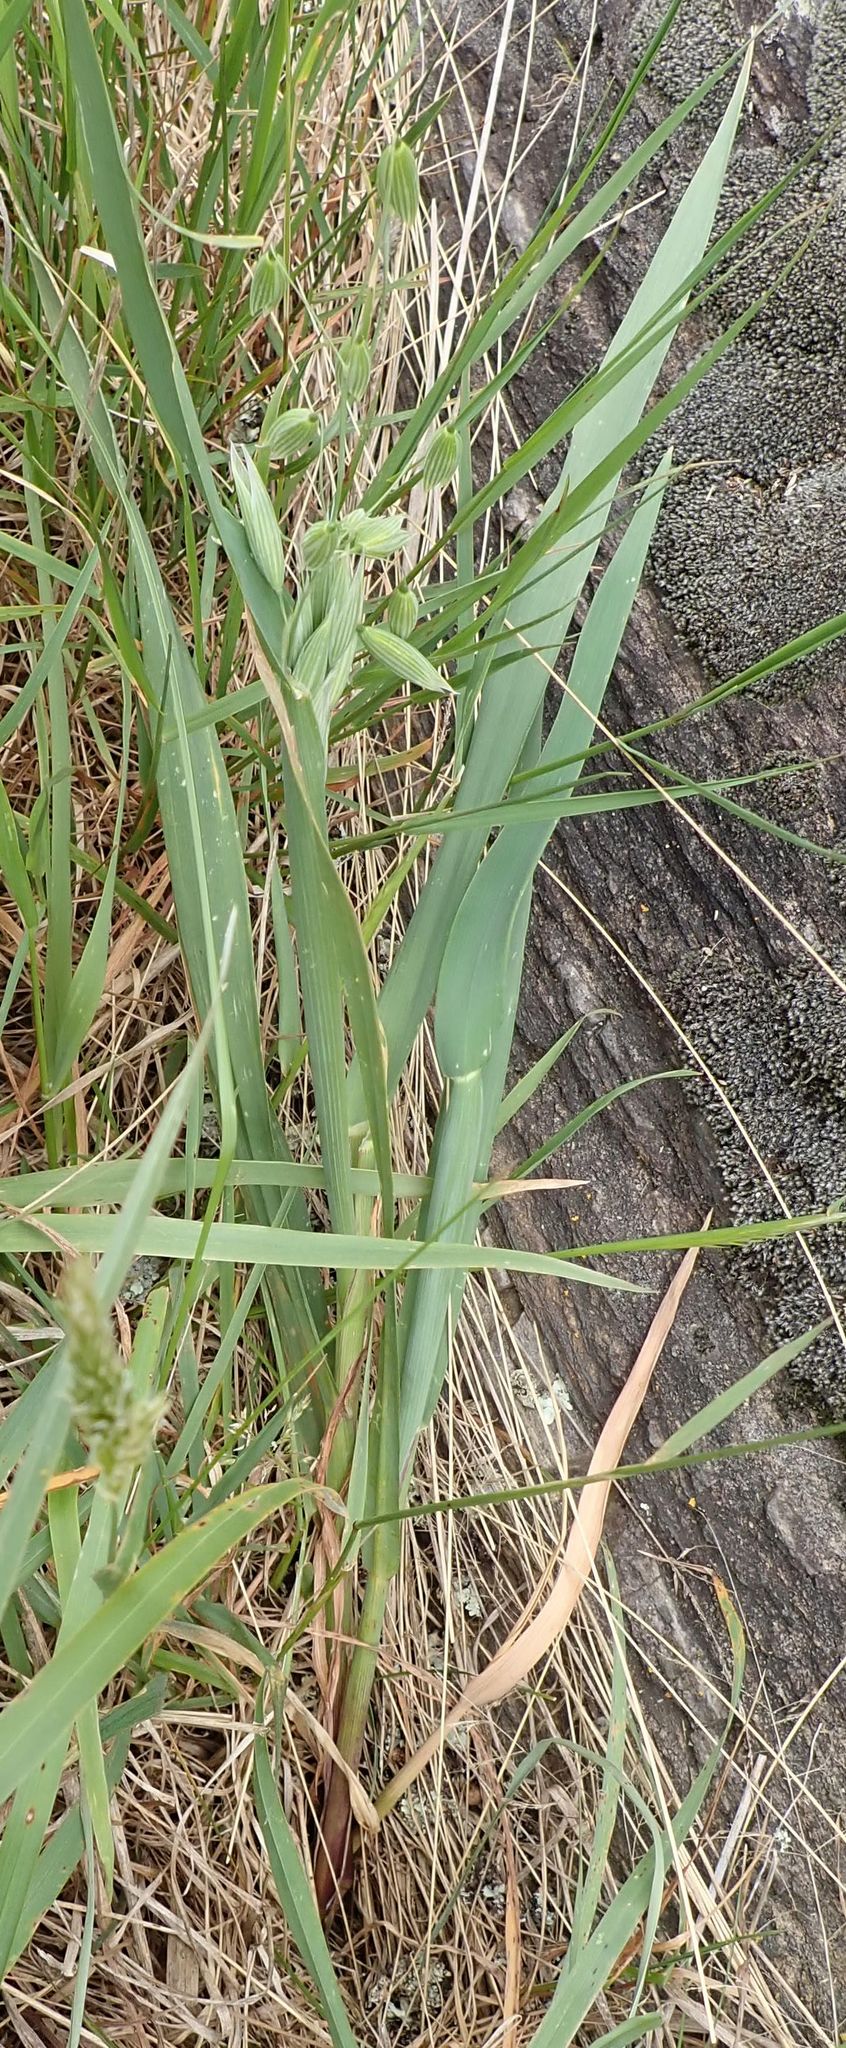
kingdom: Plantae
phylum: Tracheophyta
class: Liliopsida
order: Poales
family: Poaceae
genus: Avena
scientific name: Avena sativa
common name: Oat
